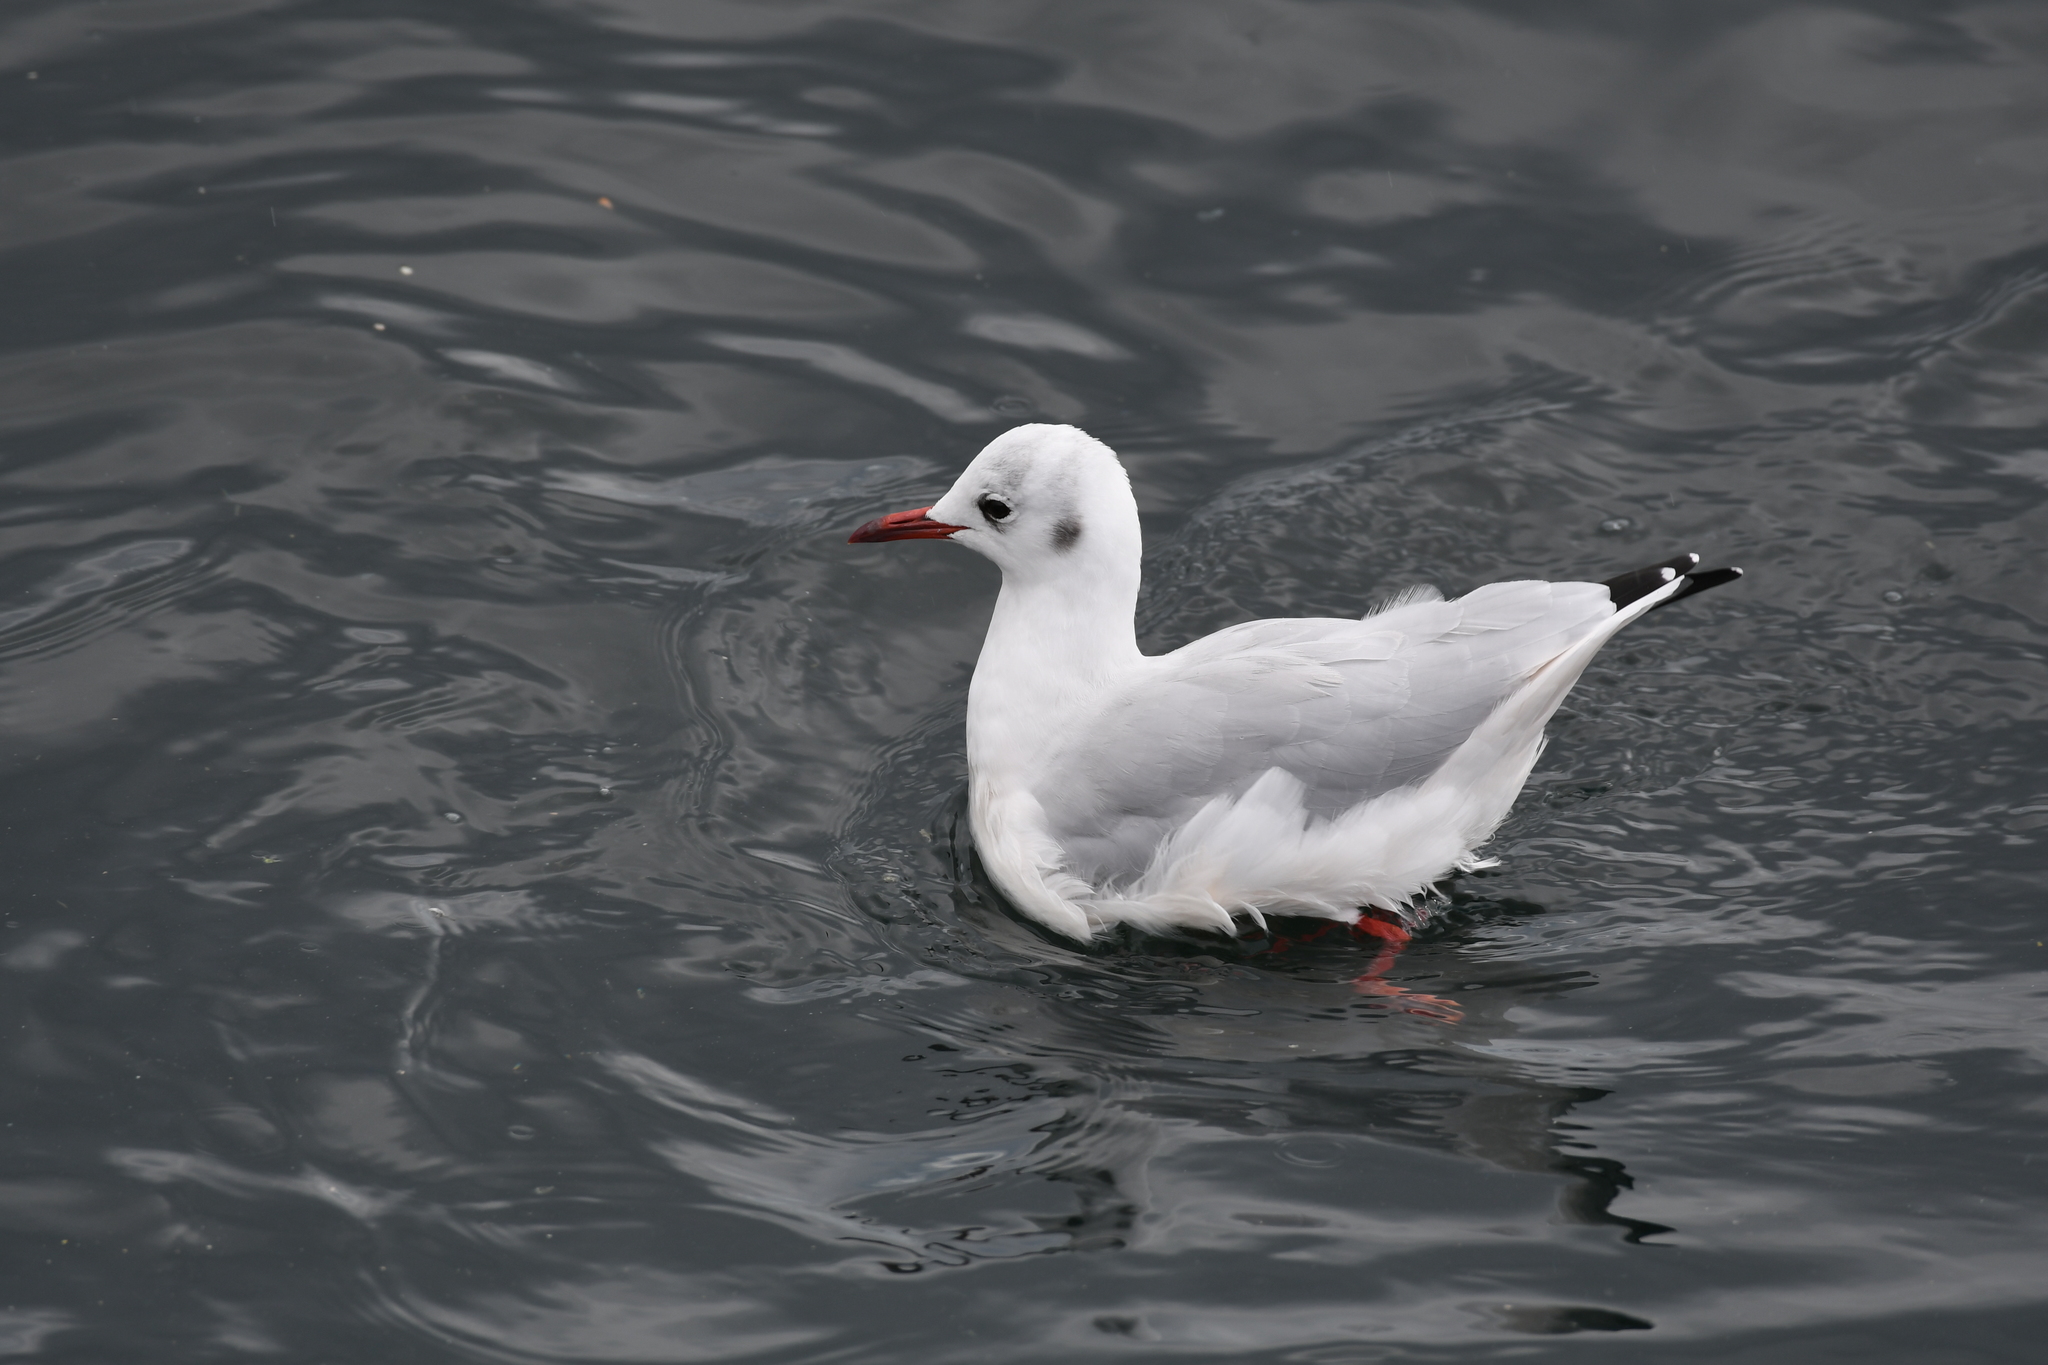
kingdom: Animalia
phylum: Chordata
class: Aves
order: Charadriiformes
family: Laridae
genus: Chroicocephalus
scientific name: Chroicocephalus ridibundus
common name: Black-headed gull
